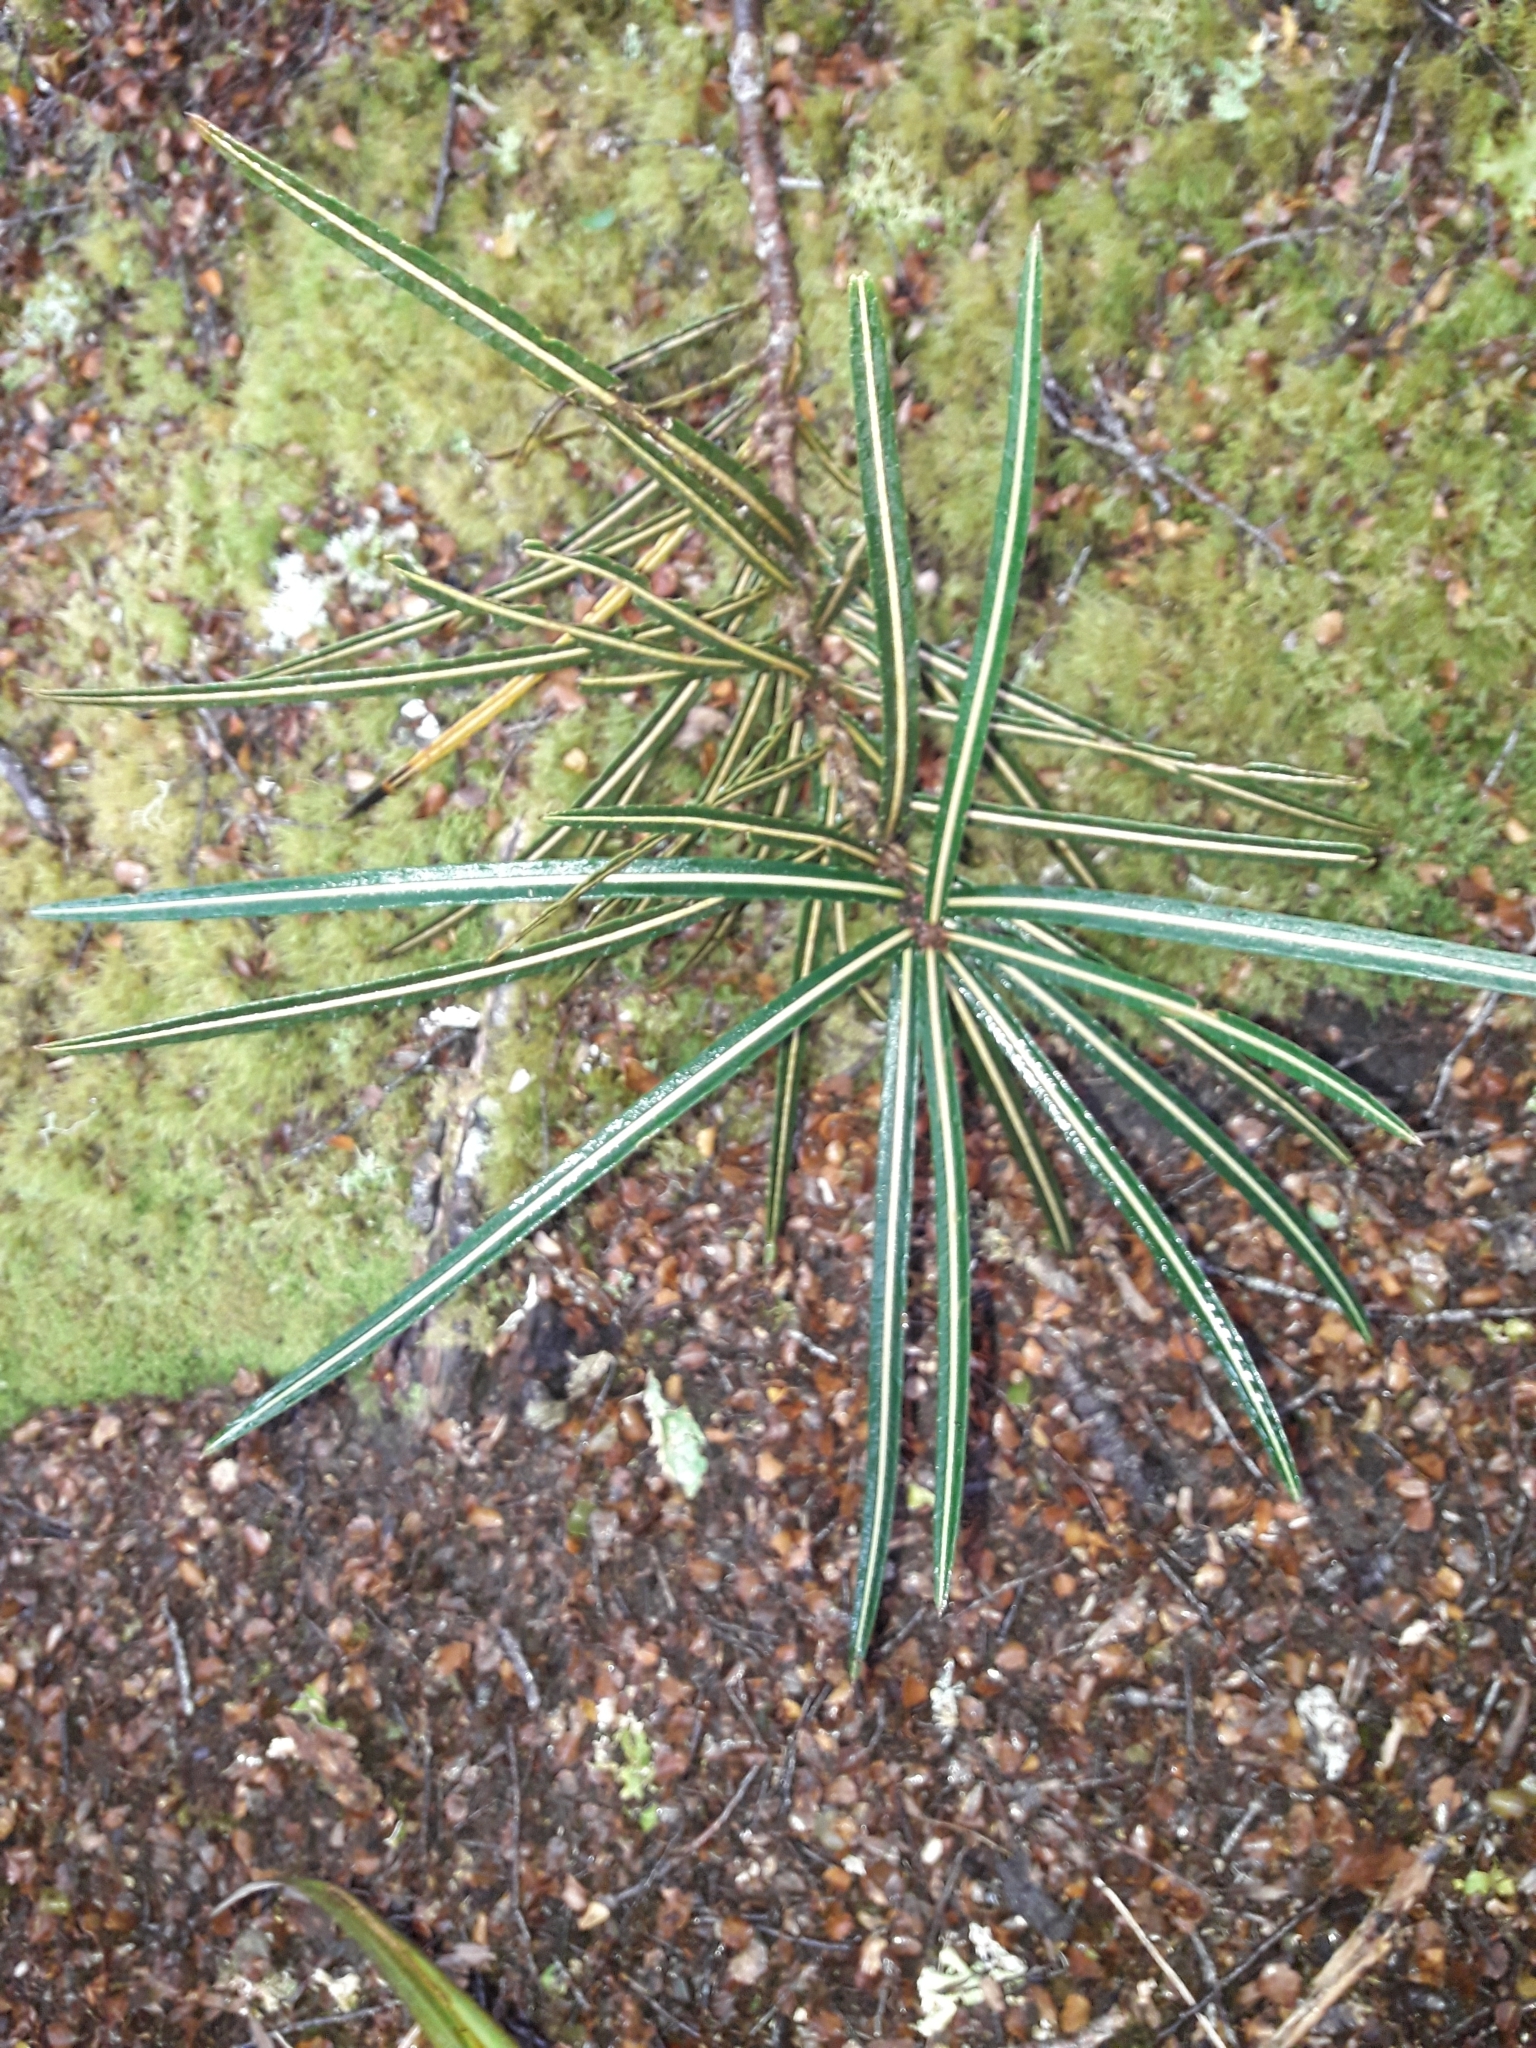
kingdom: Plantae
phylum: Tracheophyta
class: Magnoliopsida
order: Apiales
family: Araliaceae
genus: Pseudopanax
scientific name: Pseudopanax linearis
